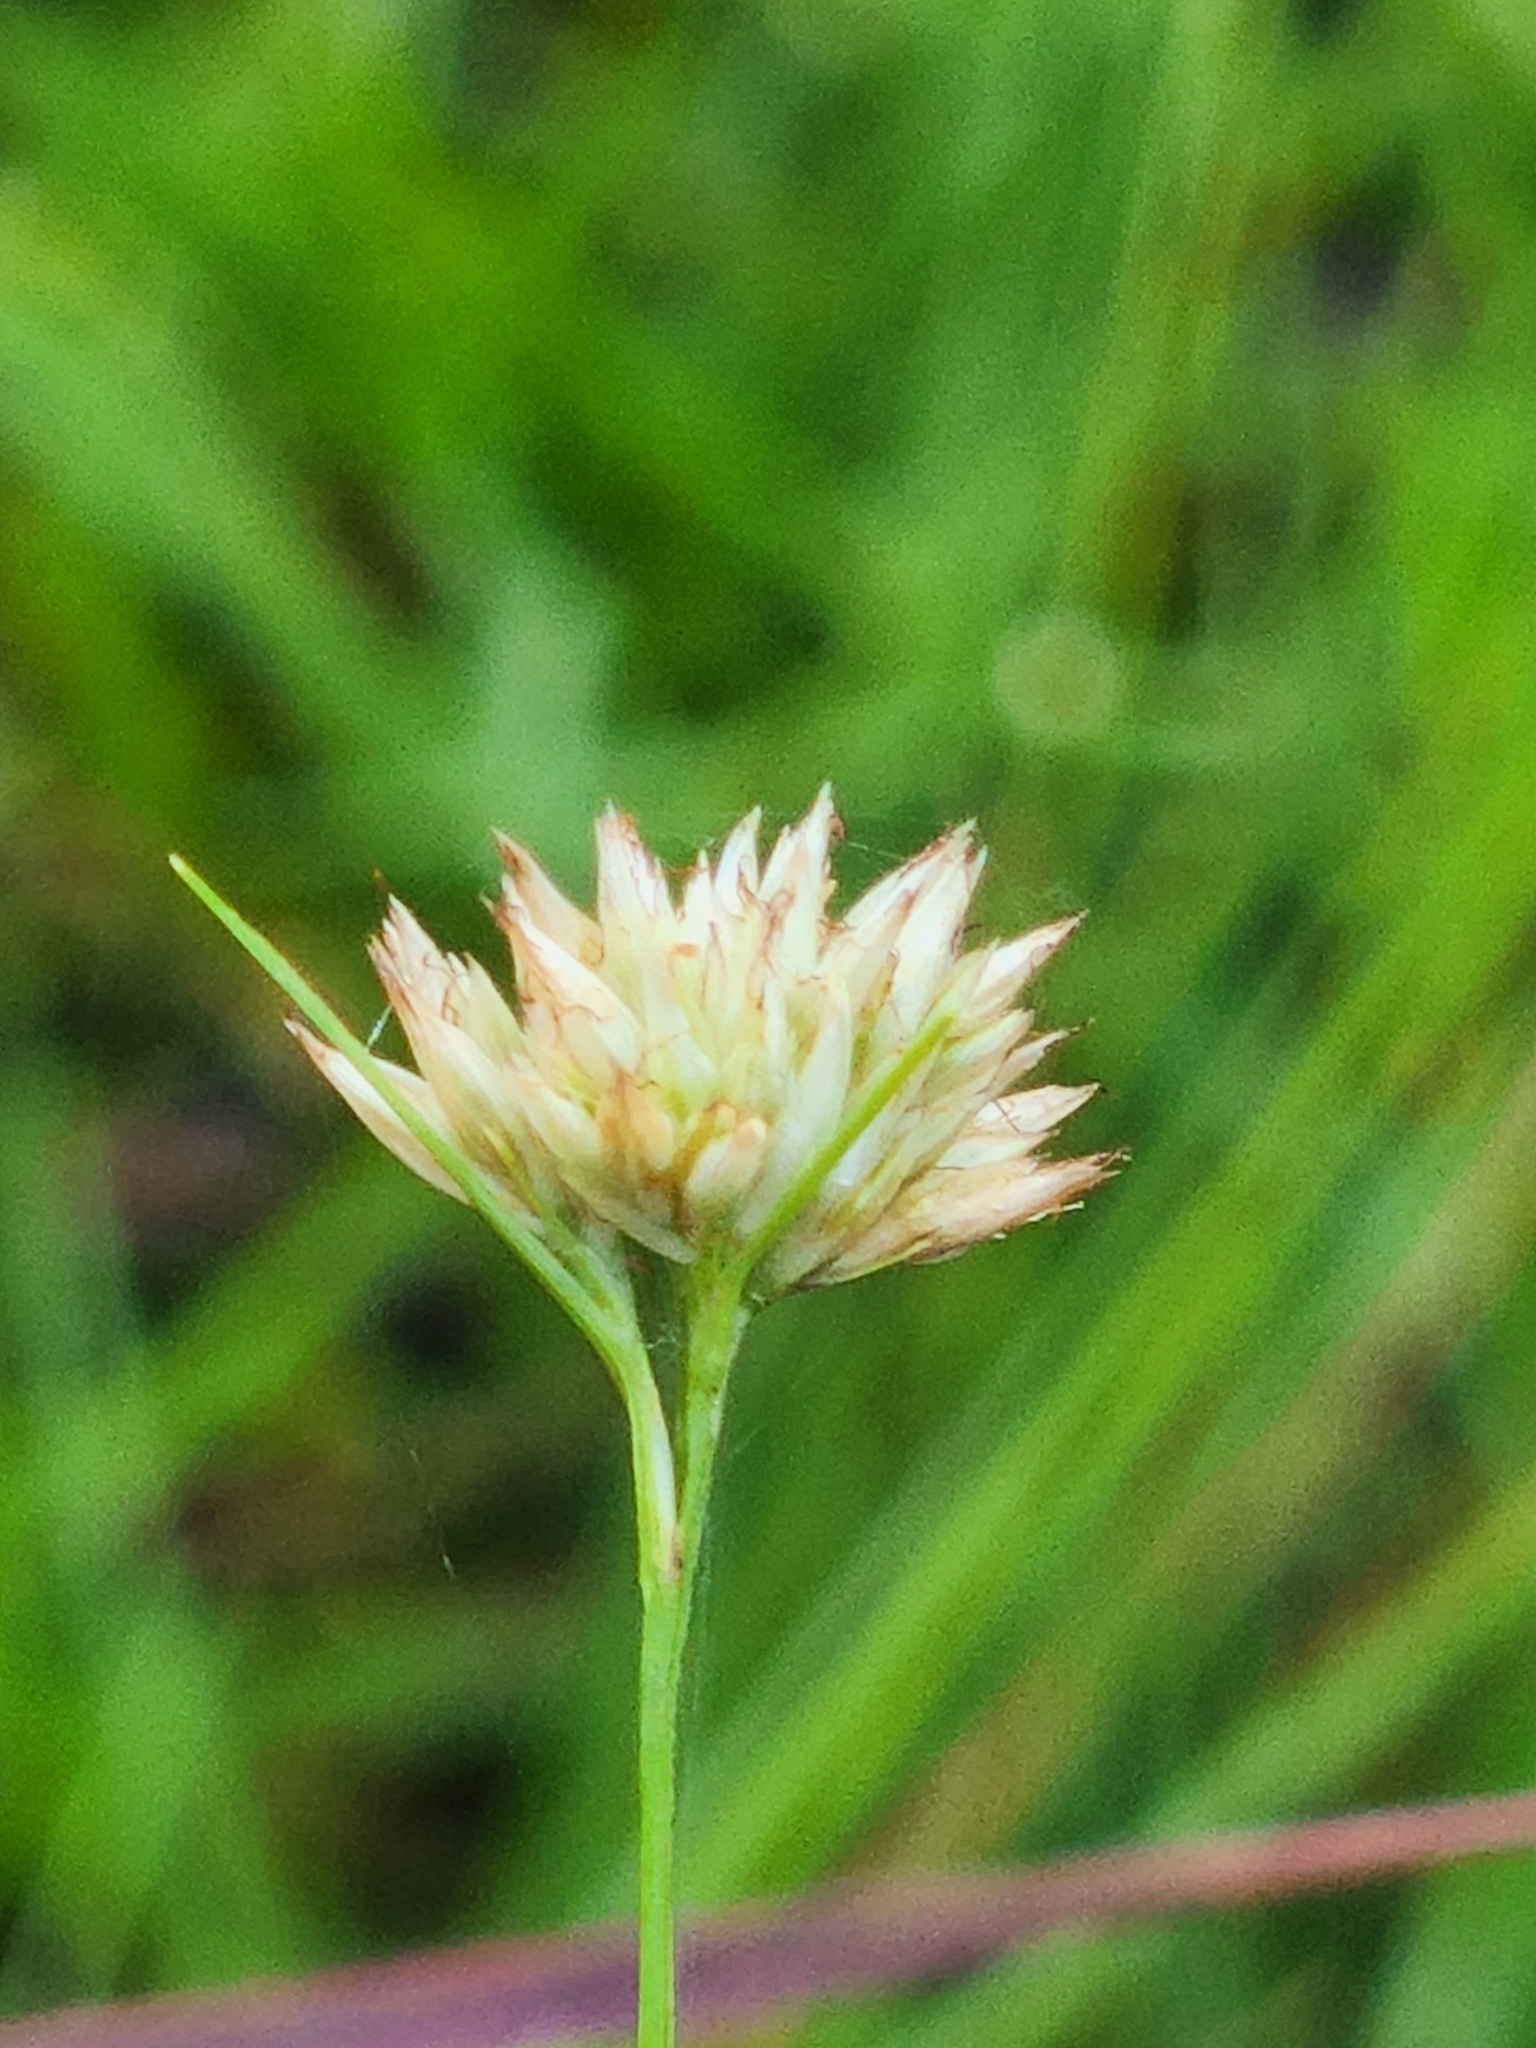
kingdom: Plantae
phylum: Tracheophyta
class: Liliopsida
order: Poales
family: Cyperaceae
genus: Rhynchospora
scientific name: Rhynchospora alba
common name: White beak-sedge
